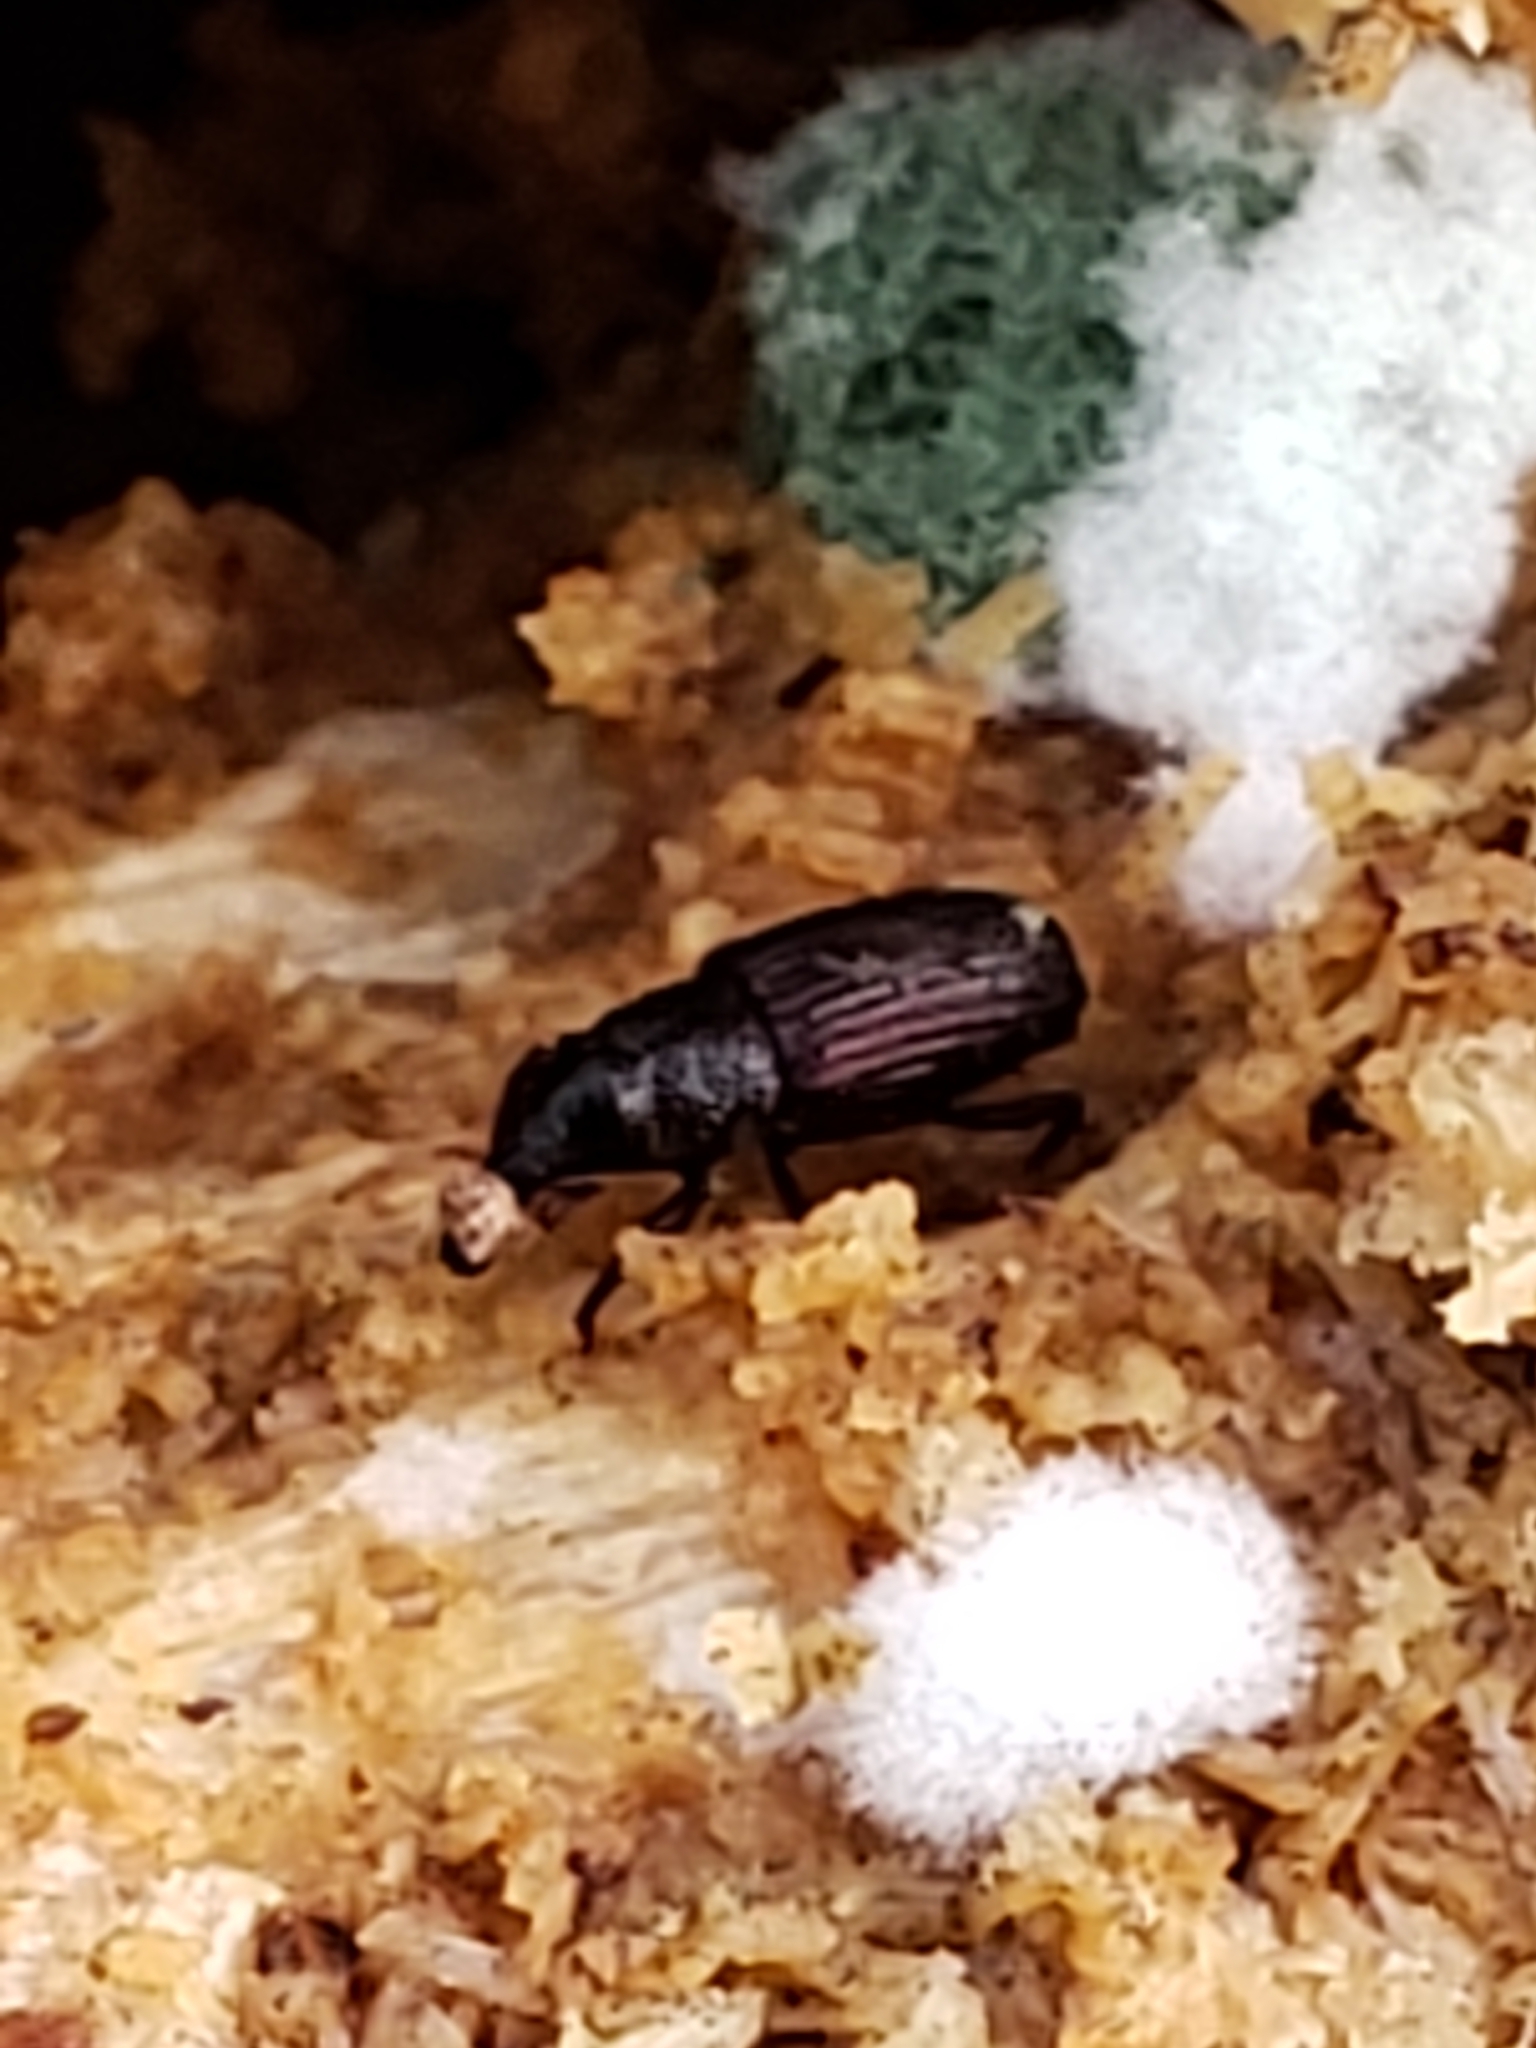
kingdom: Animalia
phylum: Arthropoda
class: Insecta
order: Coleoptera
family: Dryophthoridae
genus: Dryophthorus
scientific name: Dryophthorus americanus
